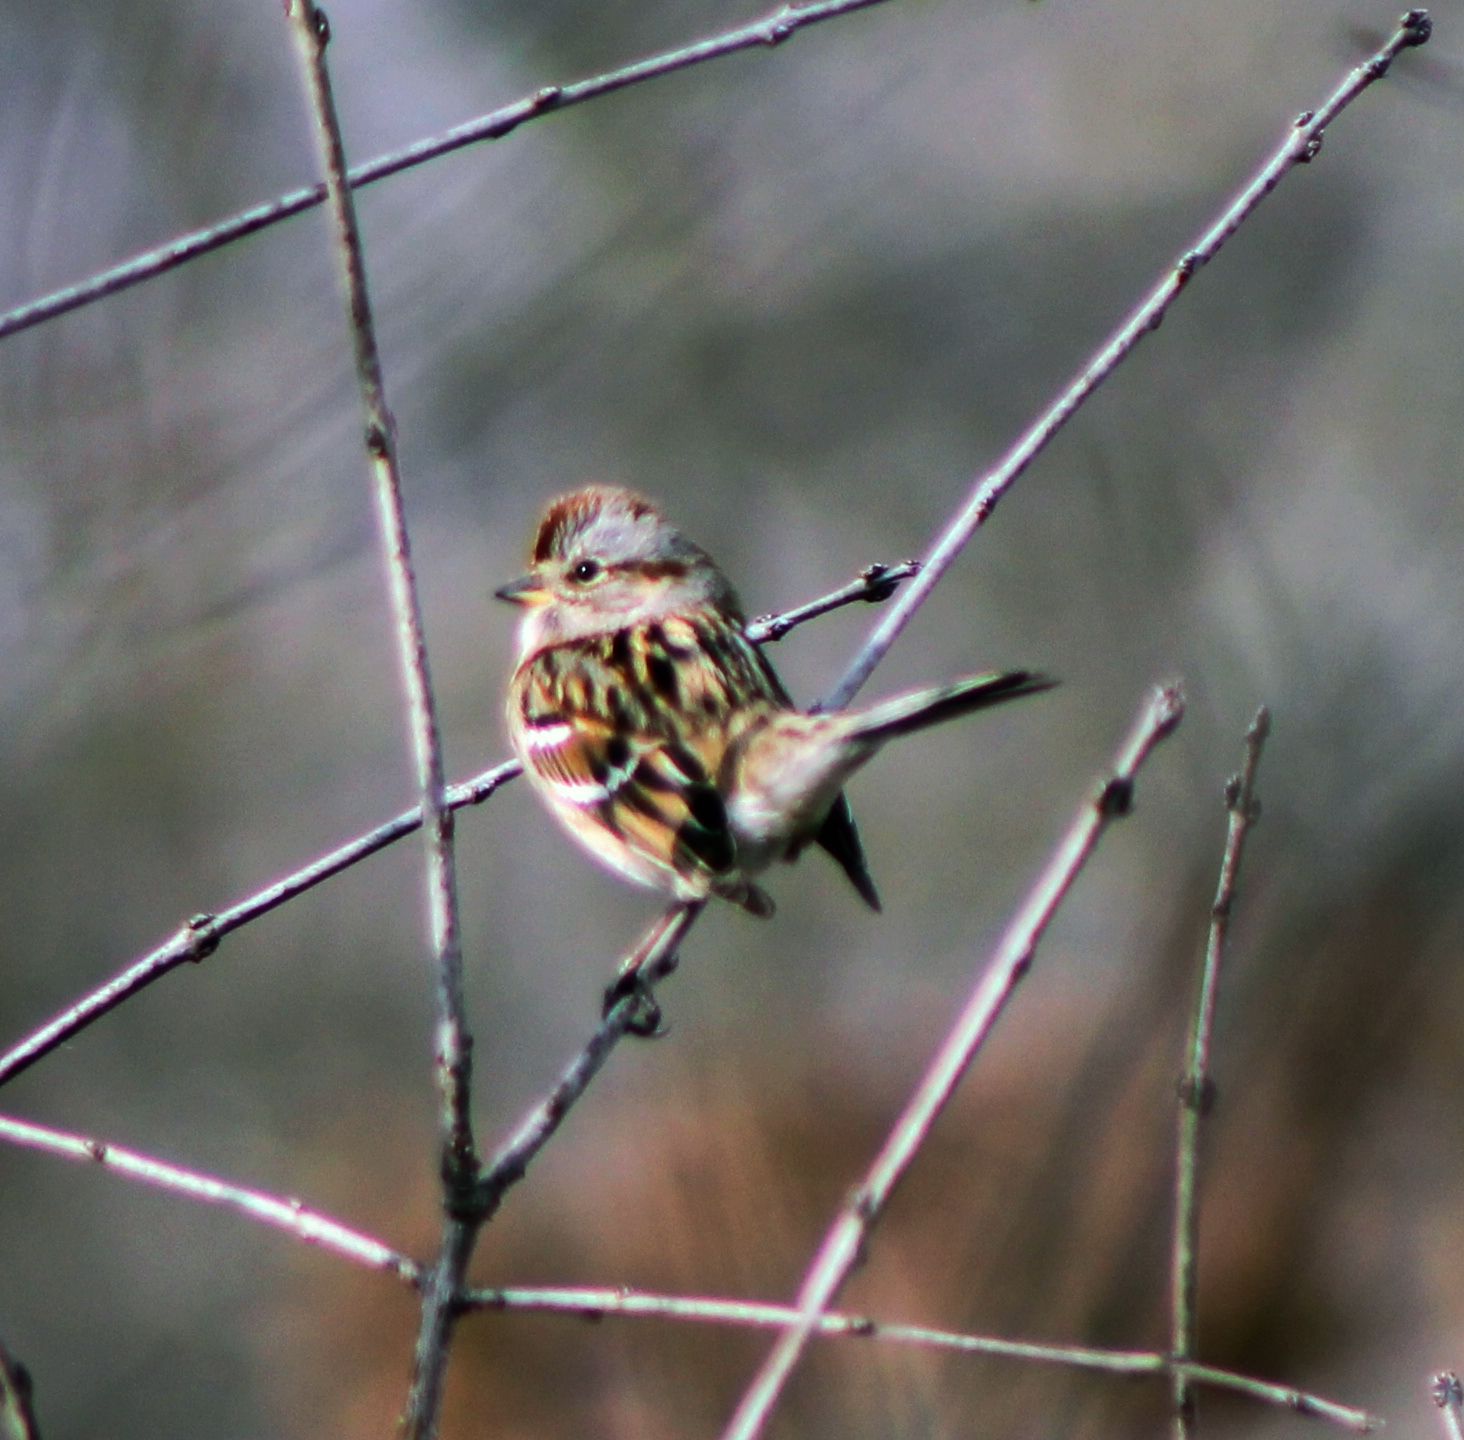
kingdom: Animalia
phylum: Chordata
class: Aves
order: Passeriformes
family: Passerellidae
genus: Spizelloides
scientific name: Spizelloides arborea
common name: American tree sparrow
